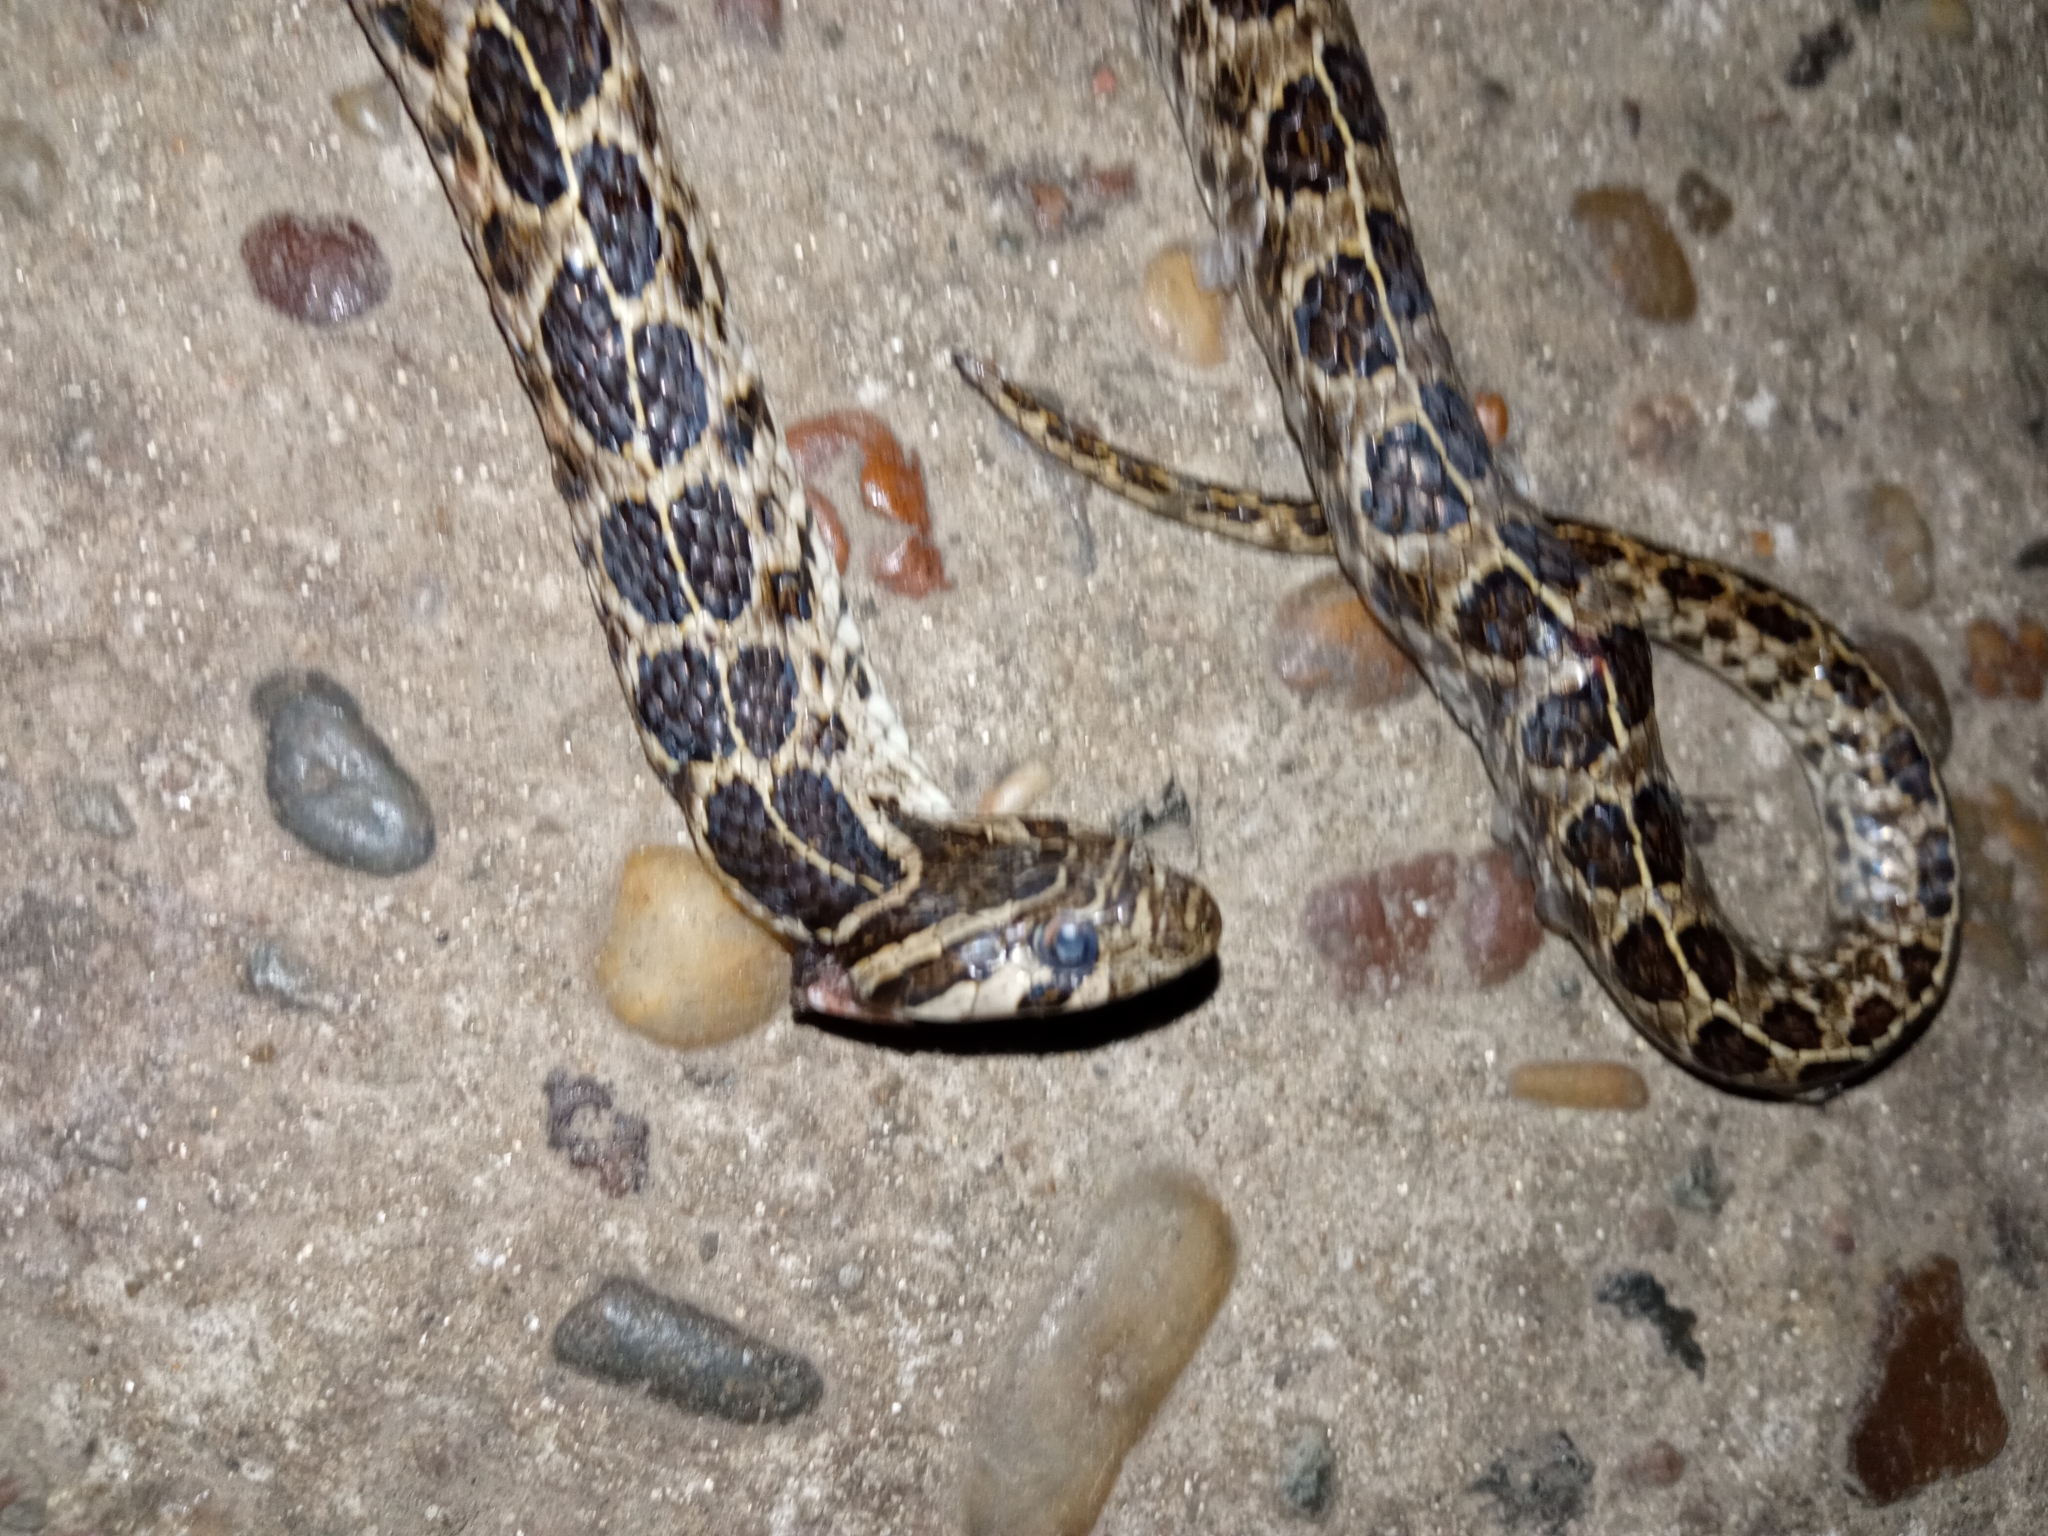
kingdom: Animalia
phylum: Chordata
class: Squamata
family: Colubridae
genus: Tachymenis
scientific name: Tachymenis
